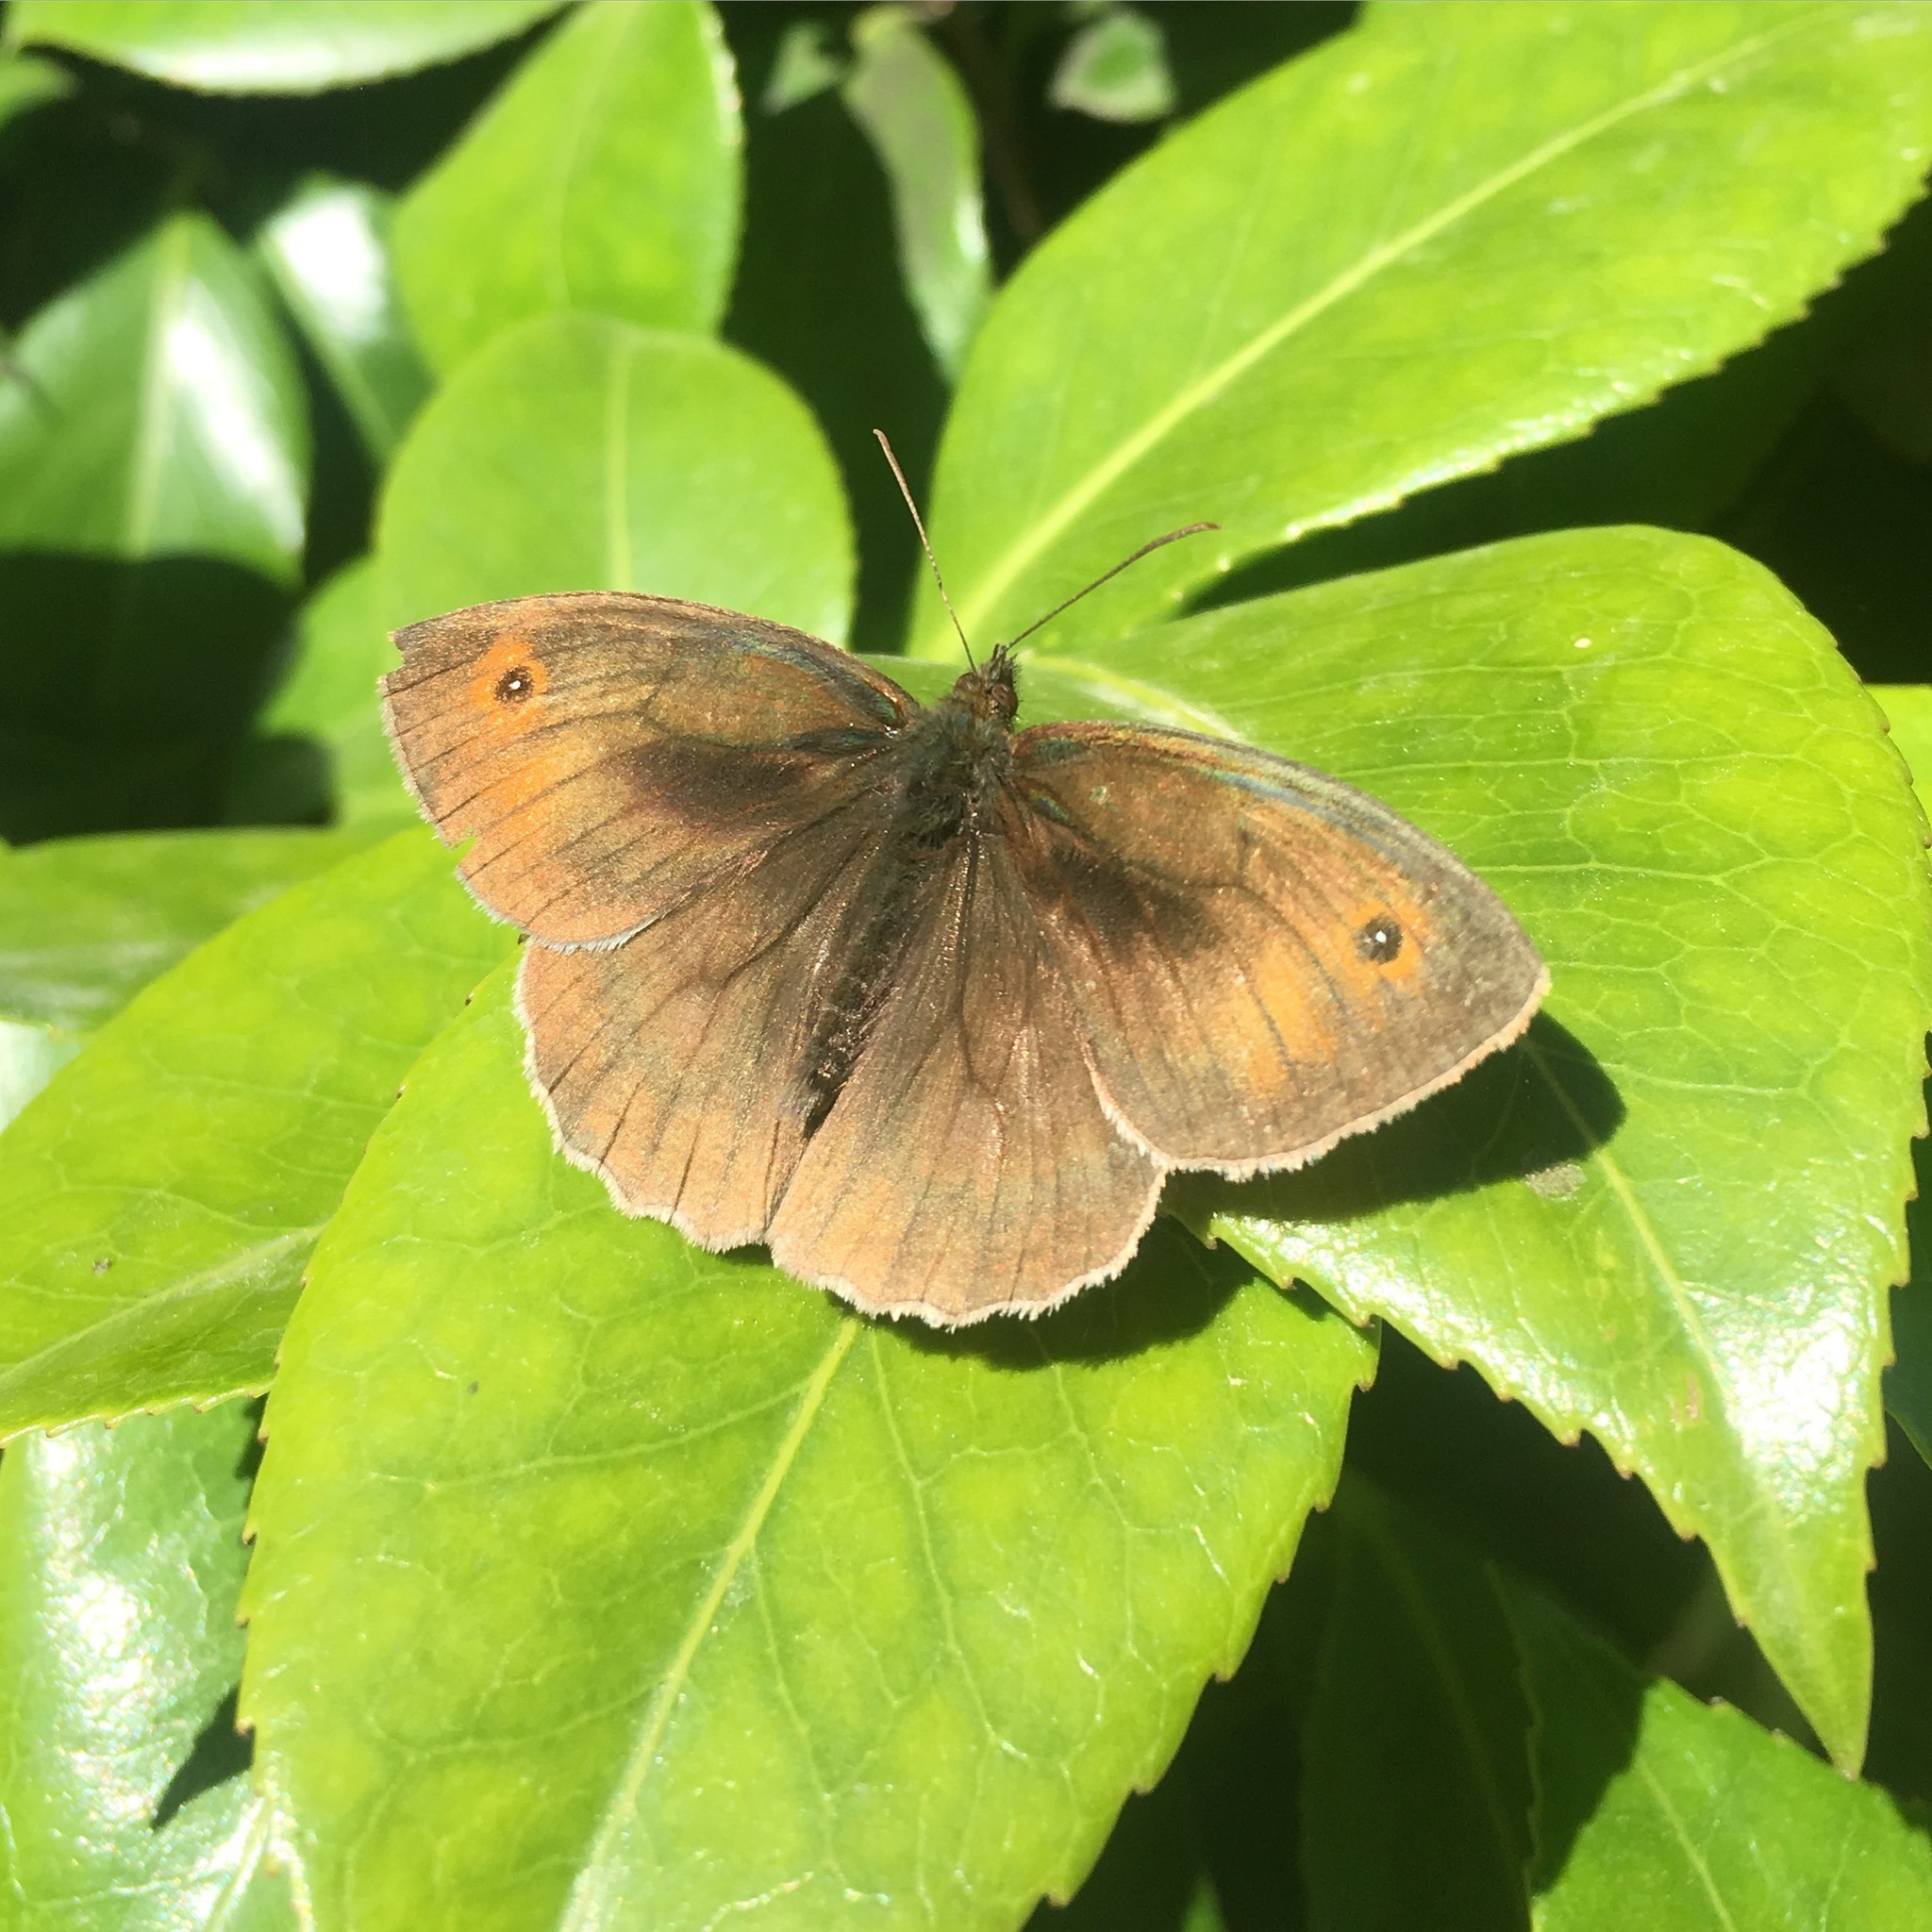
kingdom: Animalia
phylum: Arthropoda
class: Insecta
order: Lepidoptera
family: Nymphalidae
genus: Maniola
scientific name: Maniola jurtina
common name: Meadow brown
